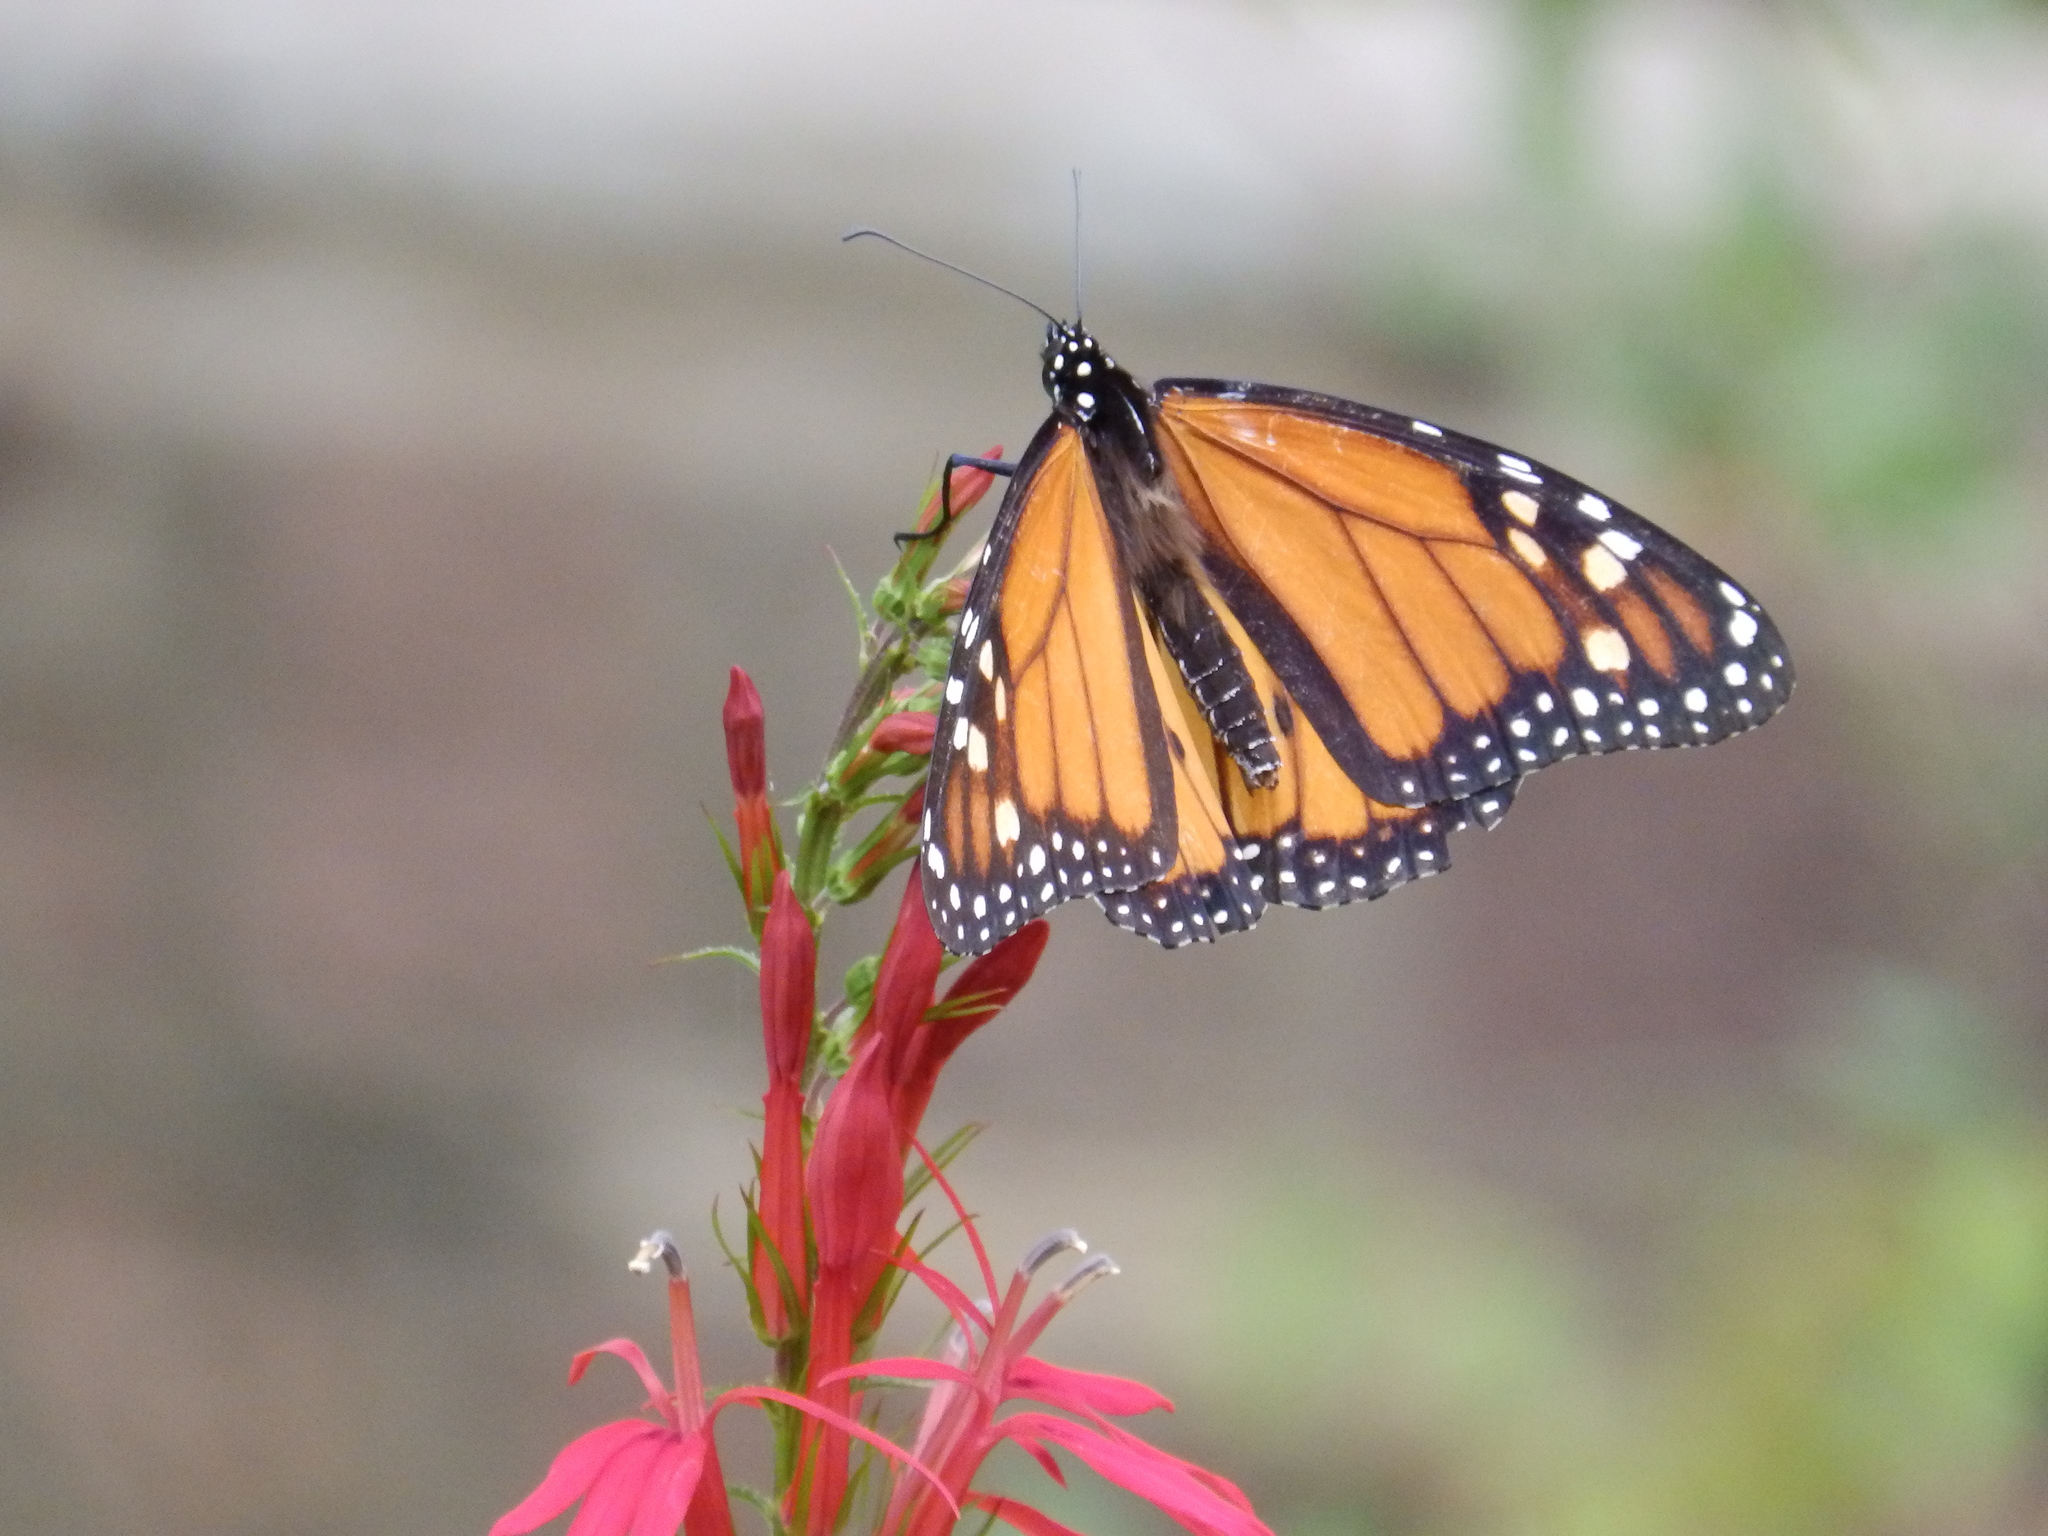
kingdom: Animalia
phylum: Arthropoda
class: Insecta
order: Lepidoptera
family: Nymphalidae
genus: Danaus
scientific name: Danaus plexippus
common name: Monarch
